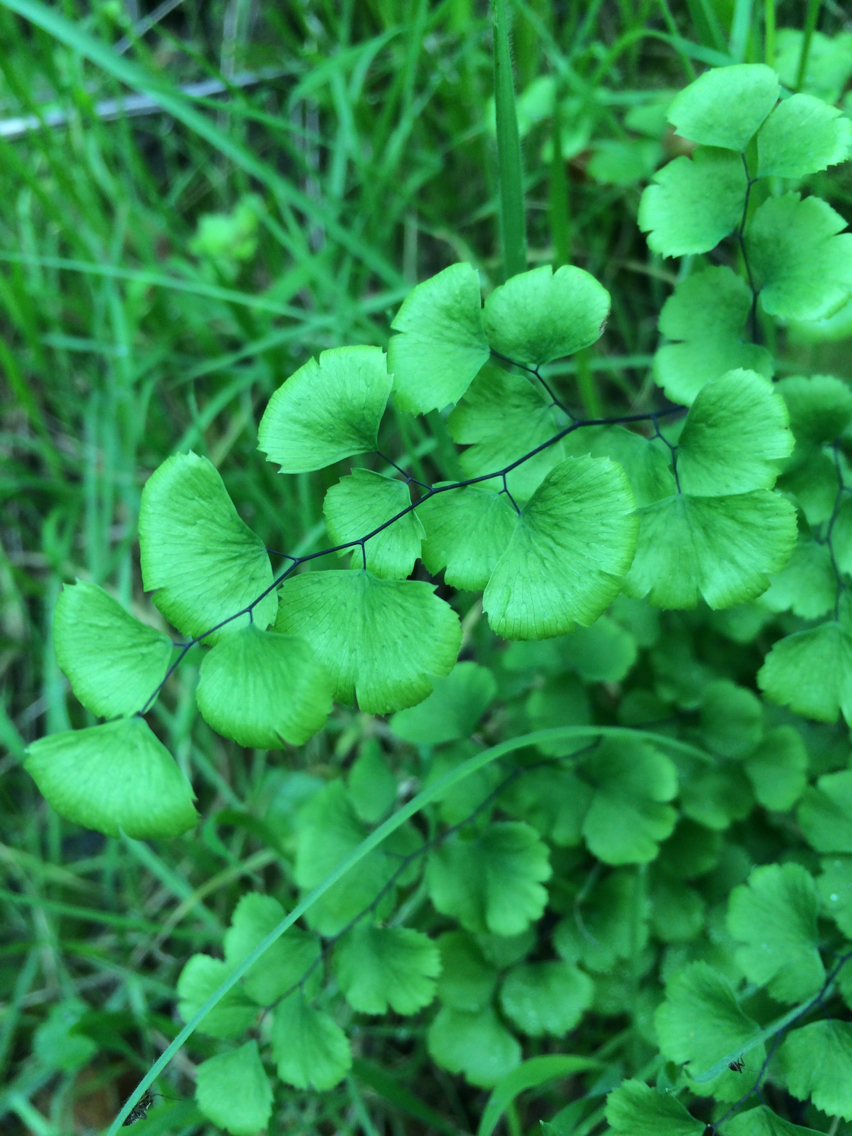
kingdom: Plantae
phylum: Tracheophyta
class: Polypodiopsida
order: Polypodiales
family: Pteridaceae
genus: Adiantum
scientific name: Adiantum jordanii
